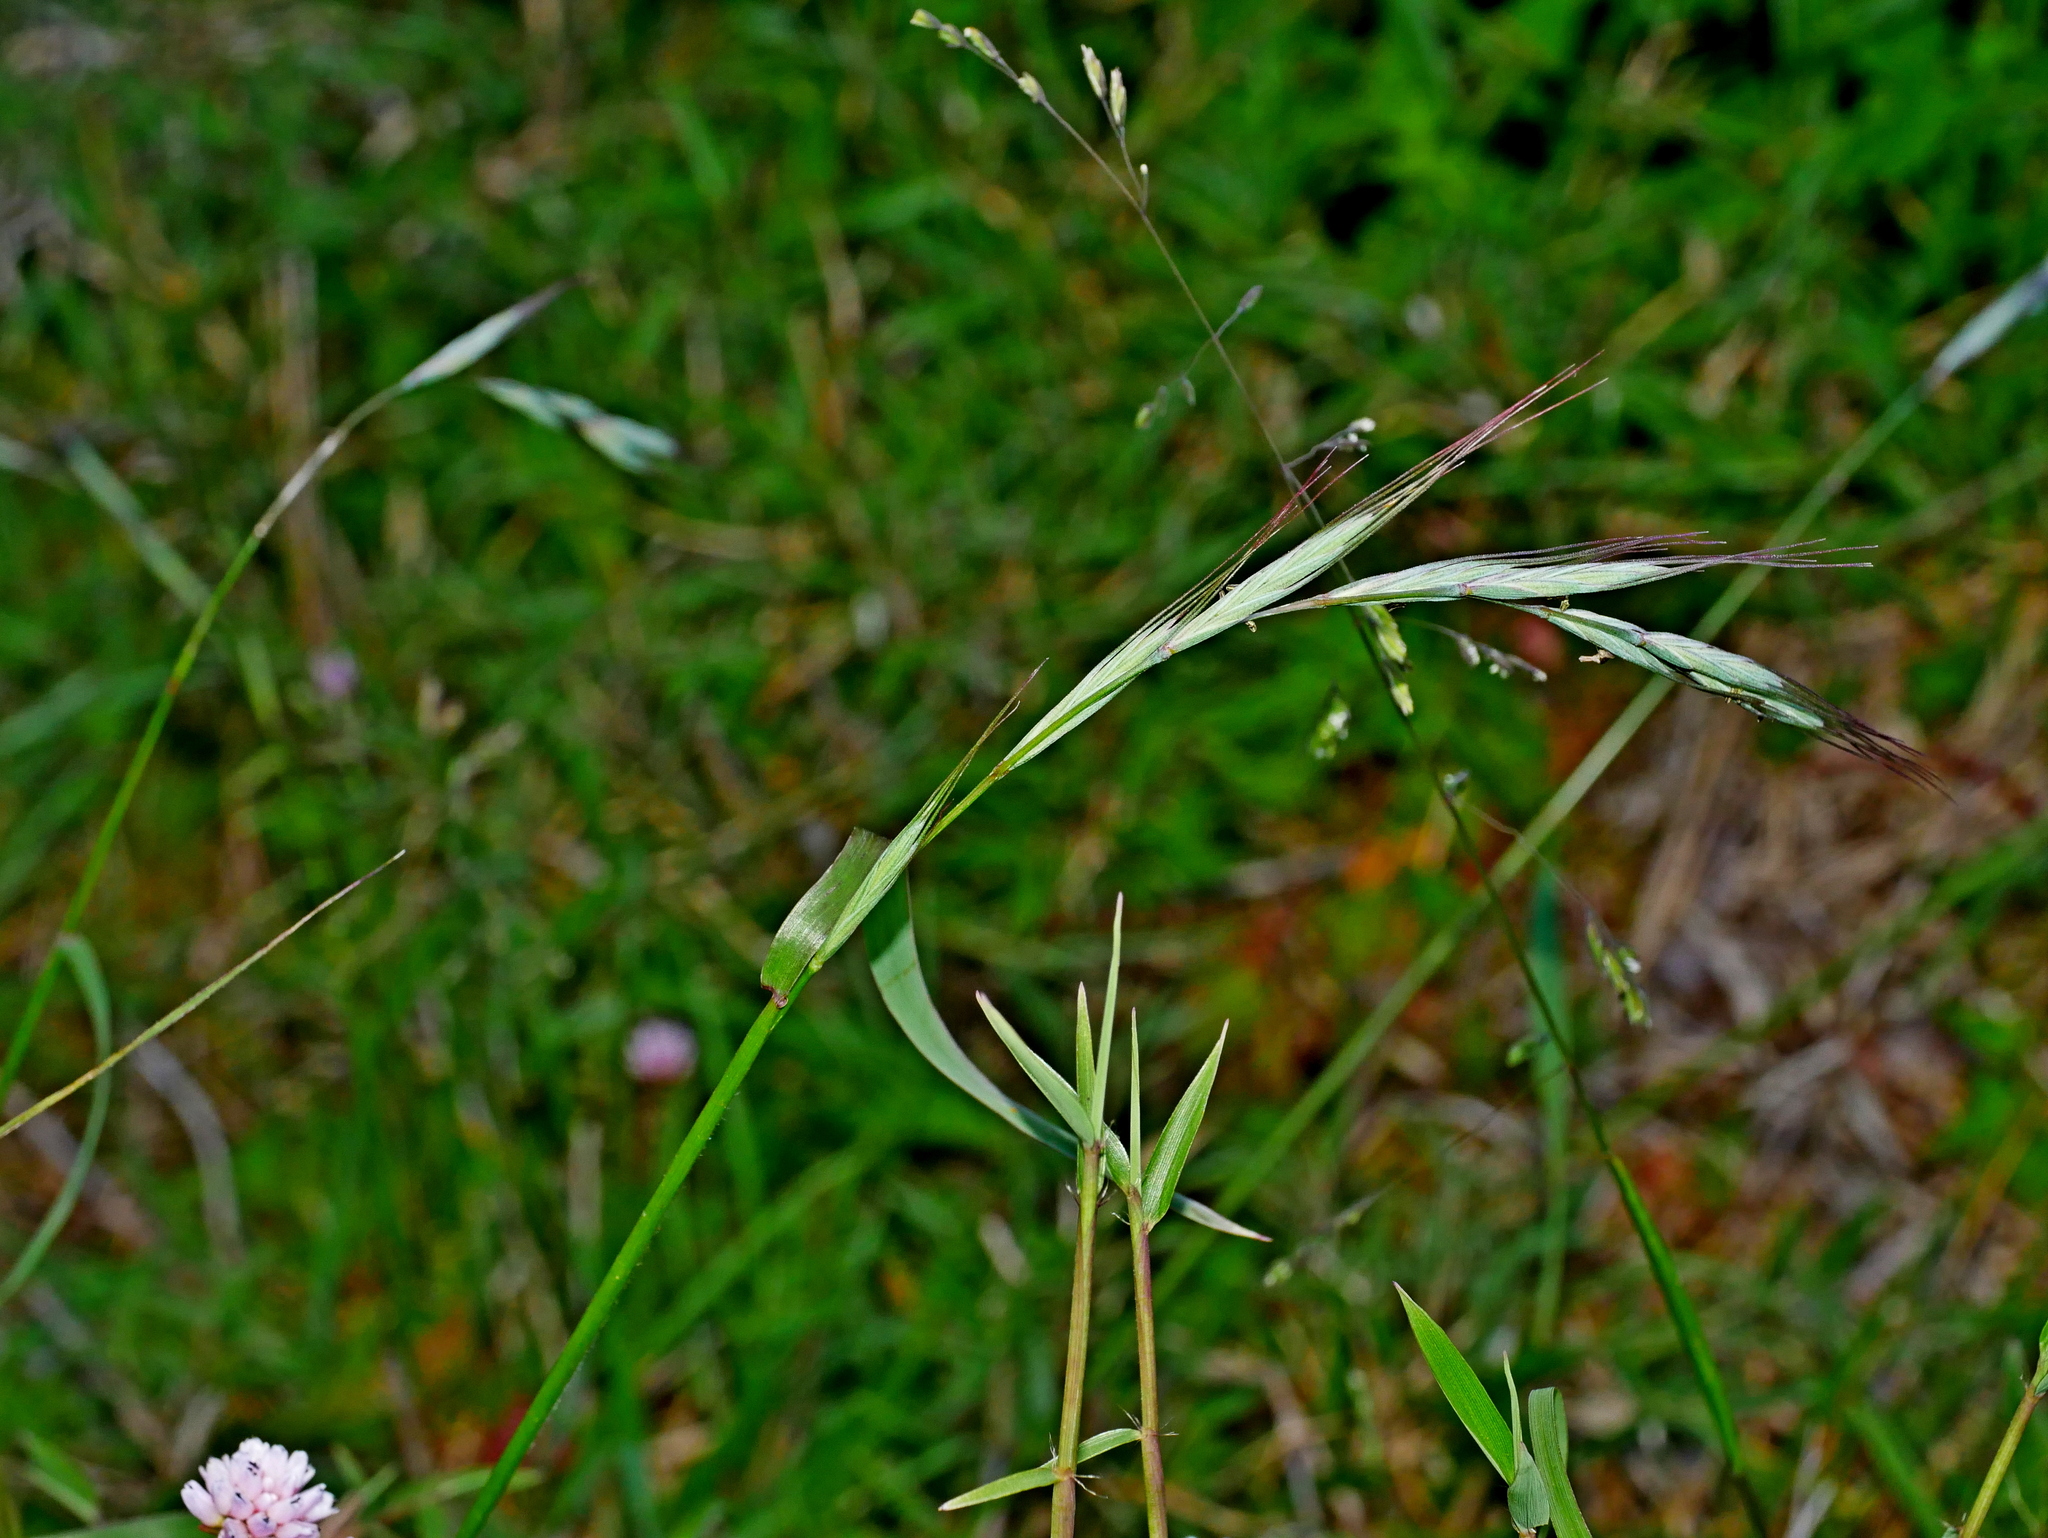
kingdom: Plantae
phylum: Tracheophyta
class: Liliopsida
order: Poales
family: Poaceae
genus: Elymus
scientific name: Elymus tsukushiensis
